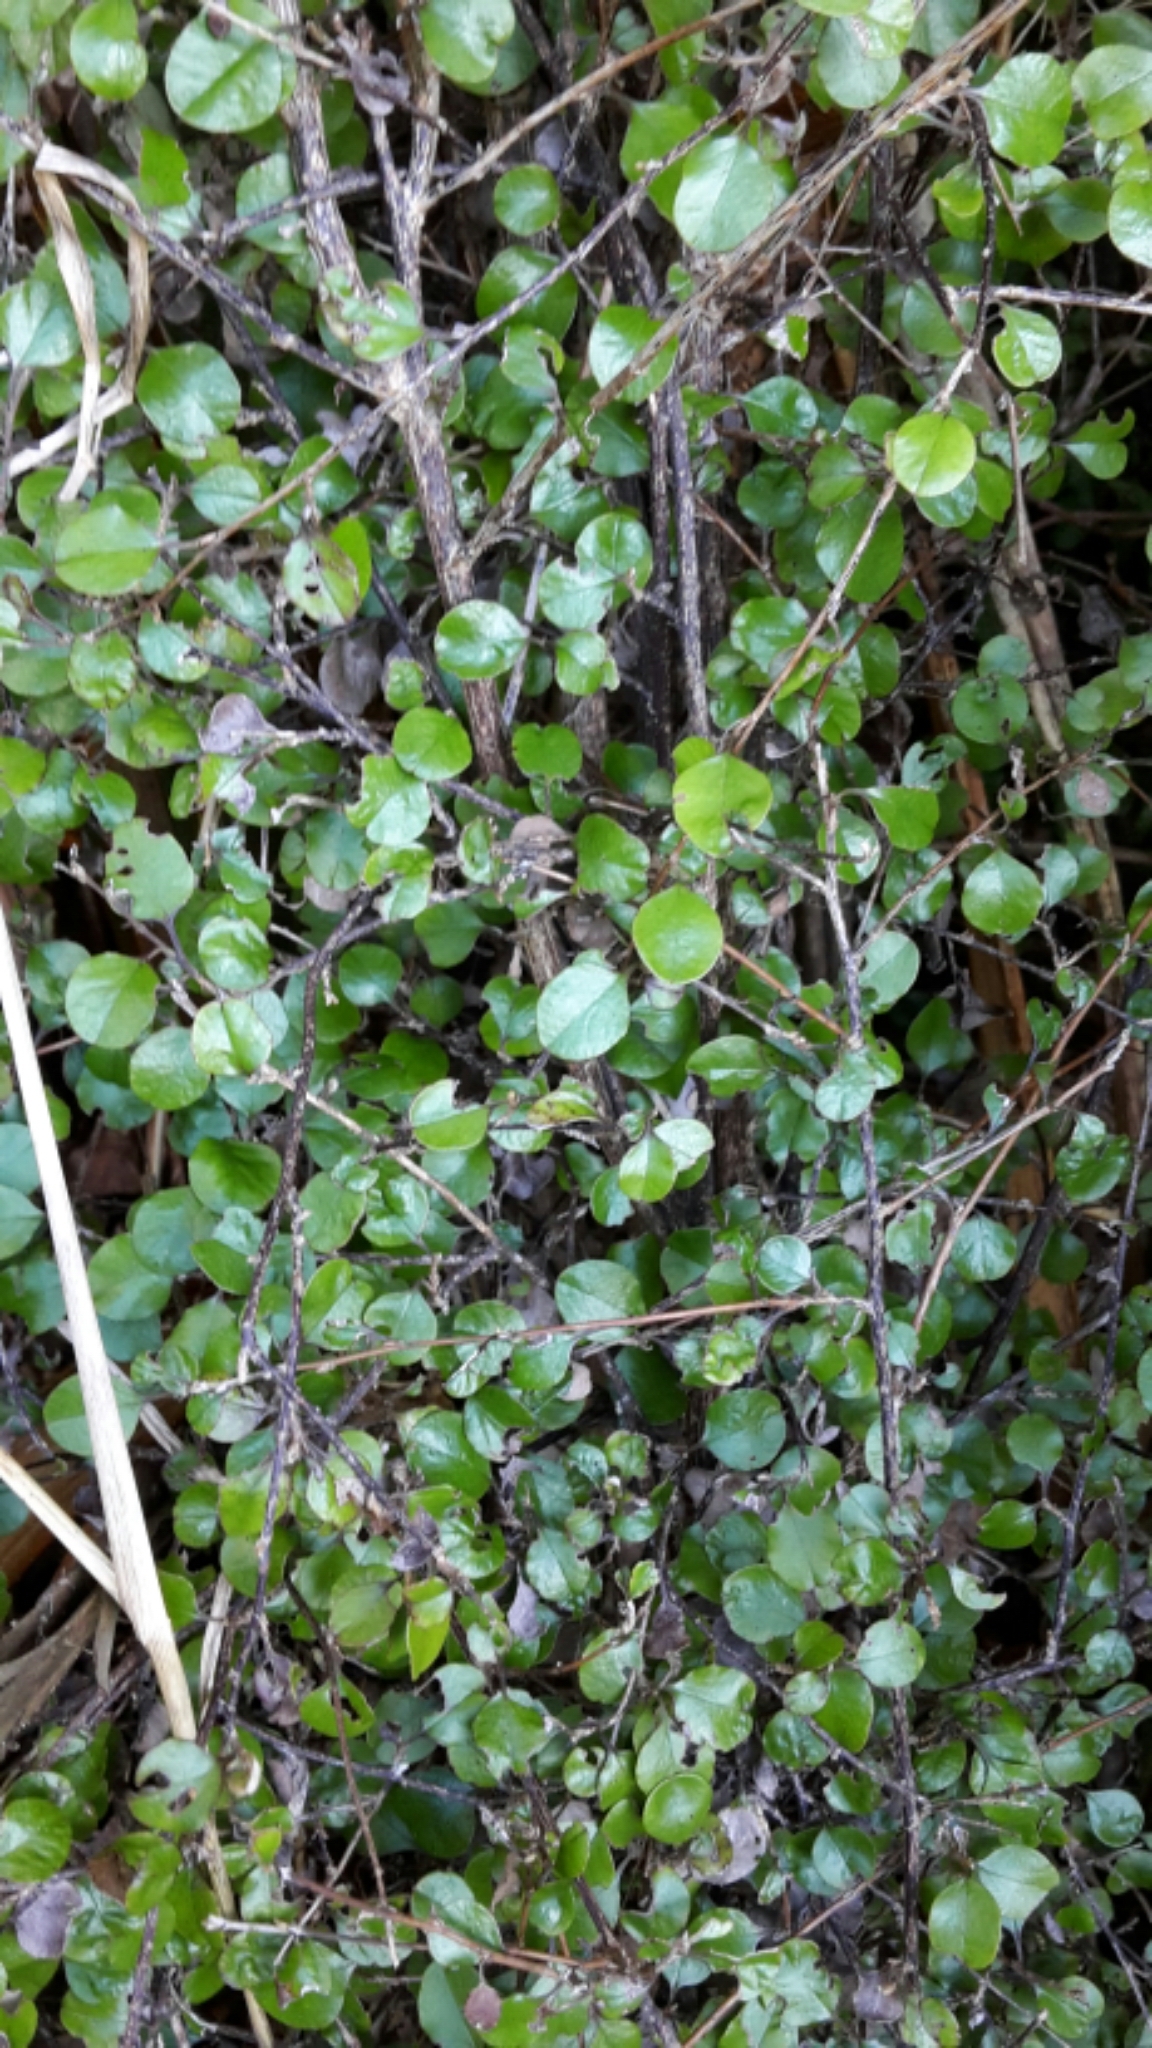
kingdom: Plantae
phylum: Tracheophyta
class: Magnoliopsida
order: Asterales
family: Asteraceae
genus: Ozothamnus
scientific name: Ozothamnus glomeratus
